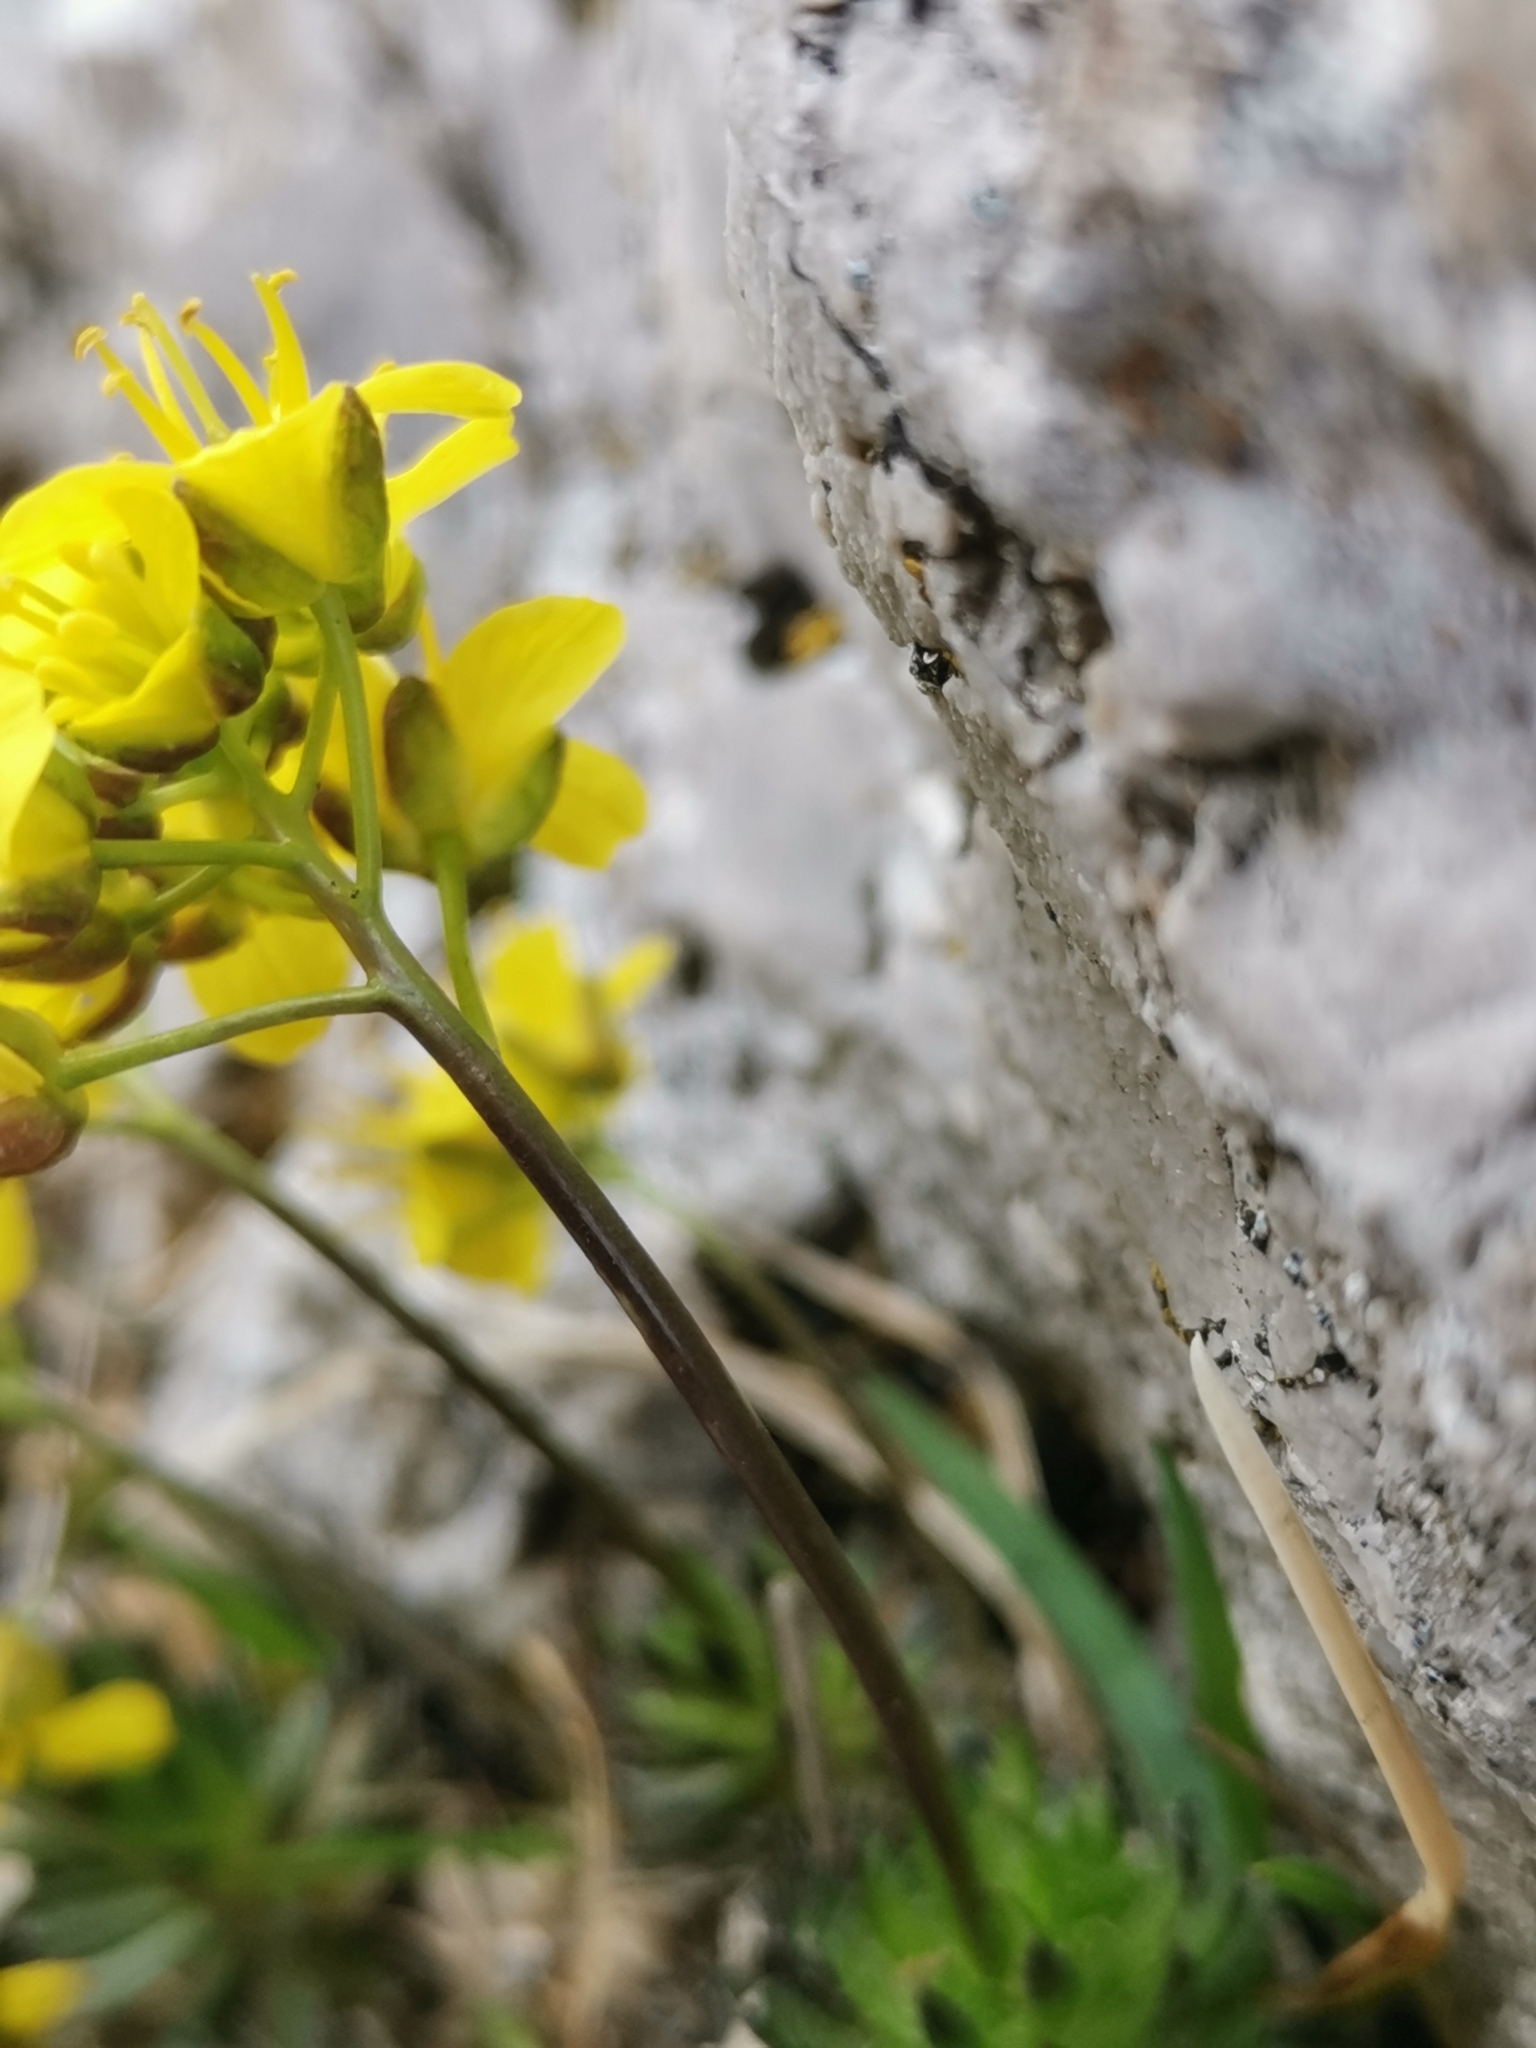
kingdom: Plantae
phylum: Tracheophyta
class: Magnoliopsida
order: Brassicales
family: Brassicaceae
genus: Draba
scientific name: Draba aizoides
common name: Yellow whitlowgrass
